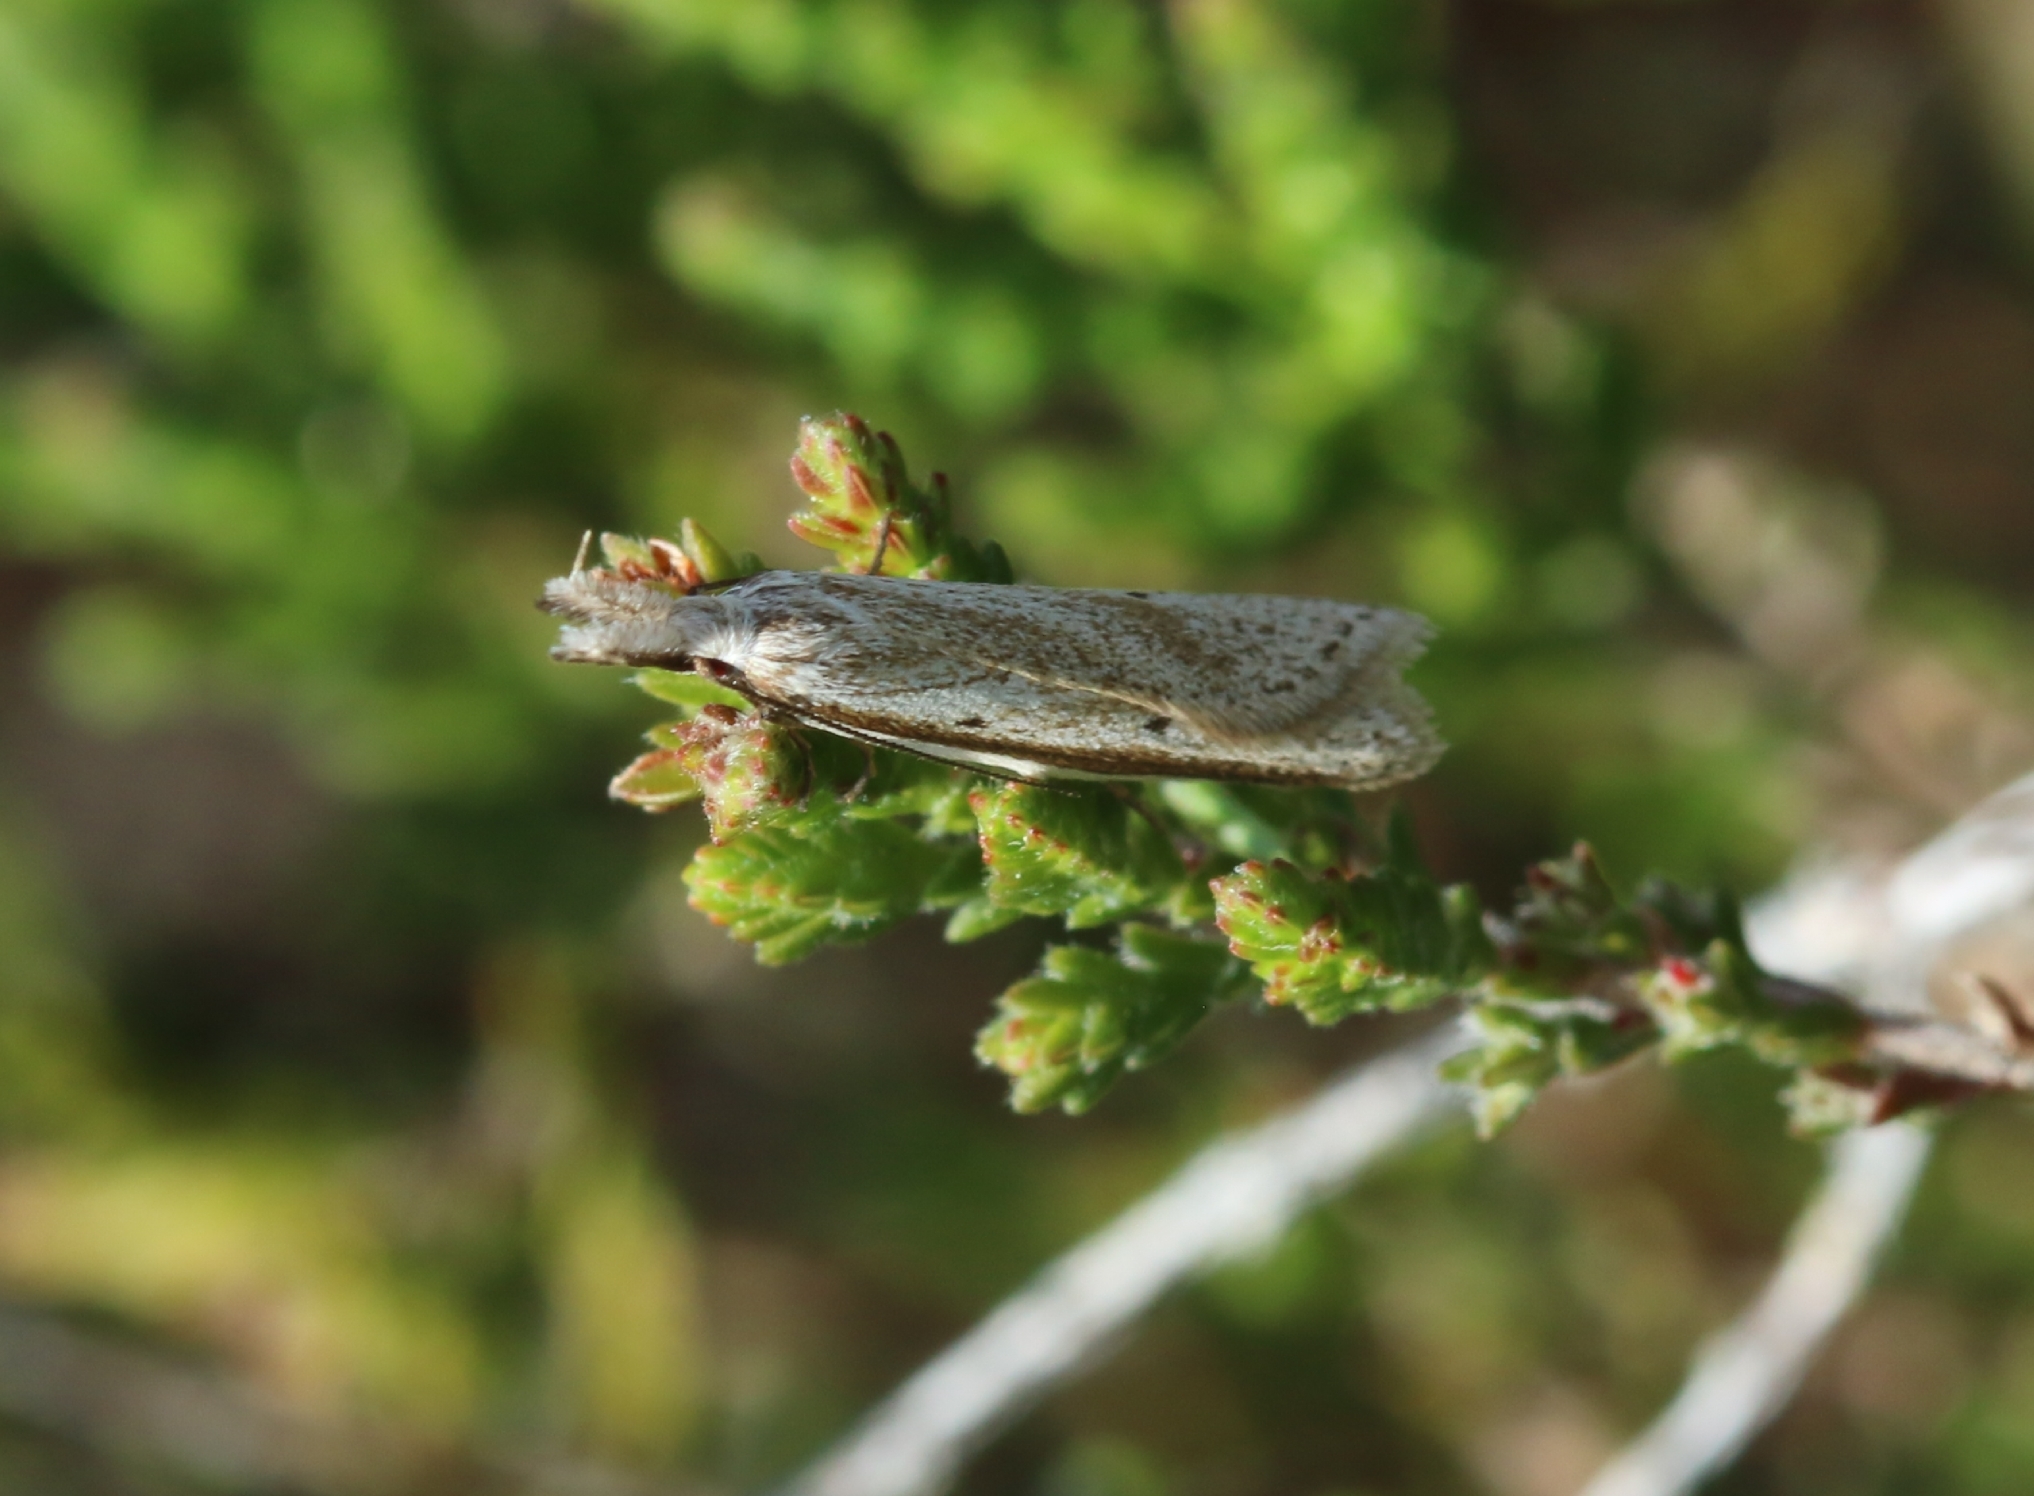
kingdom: Animalia
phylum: Arthropoda
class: Insecta
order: Lepidoptera
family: Oecophoridae
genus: Pleurota
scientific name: Pleurota bicostella
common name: Light streak
